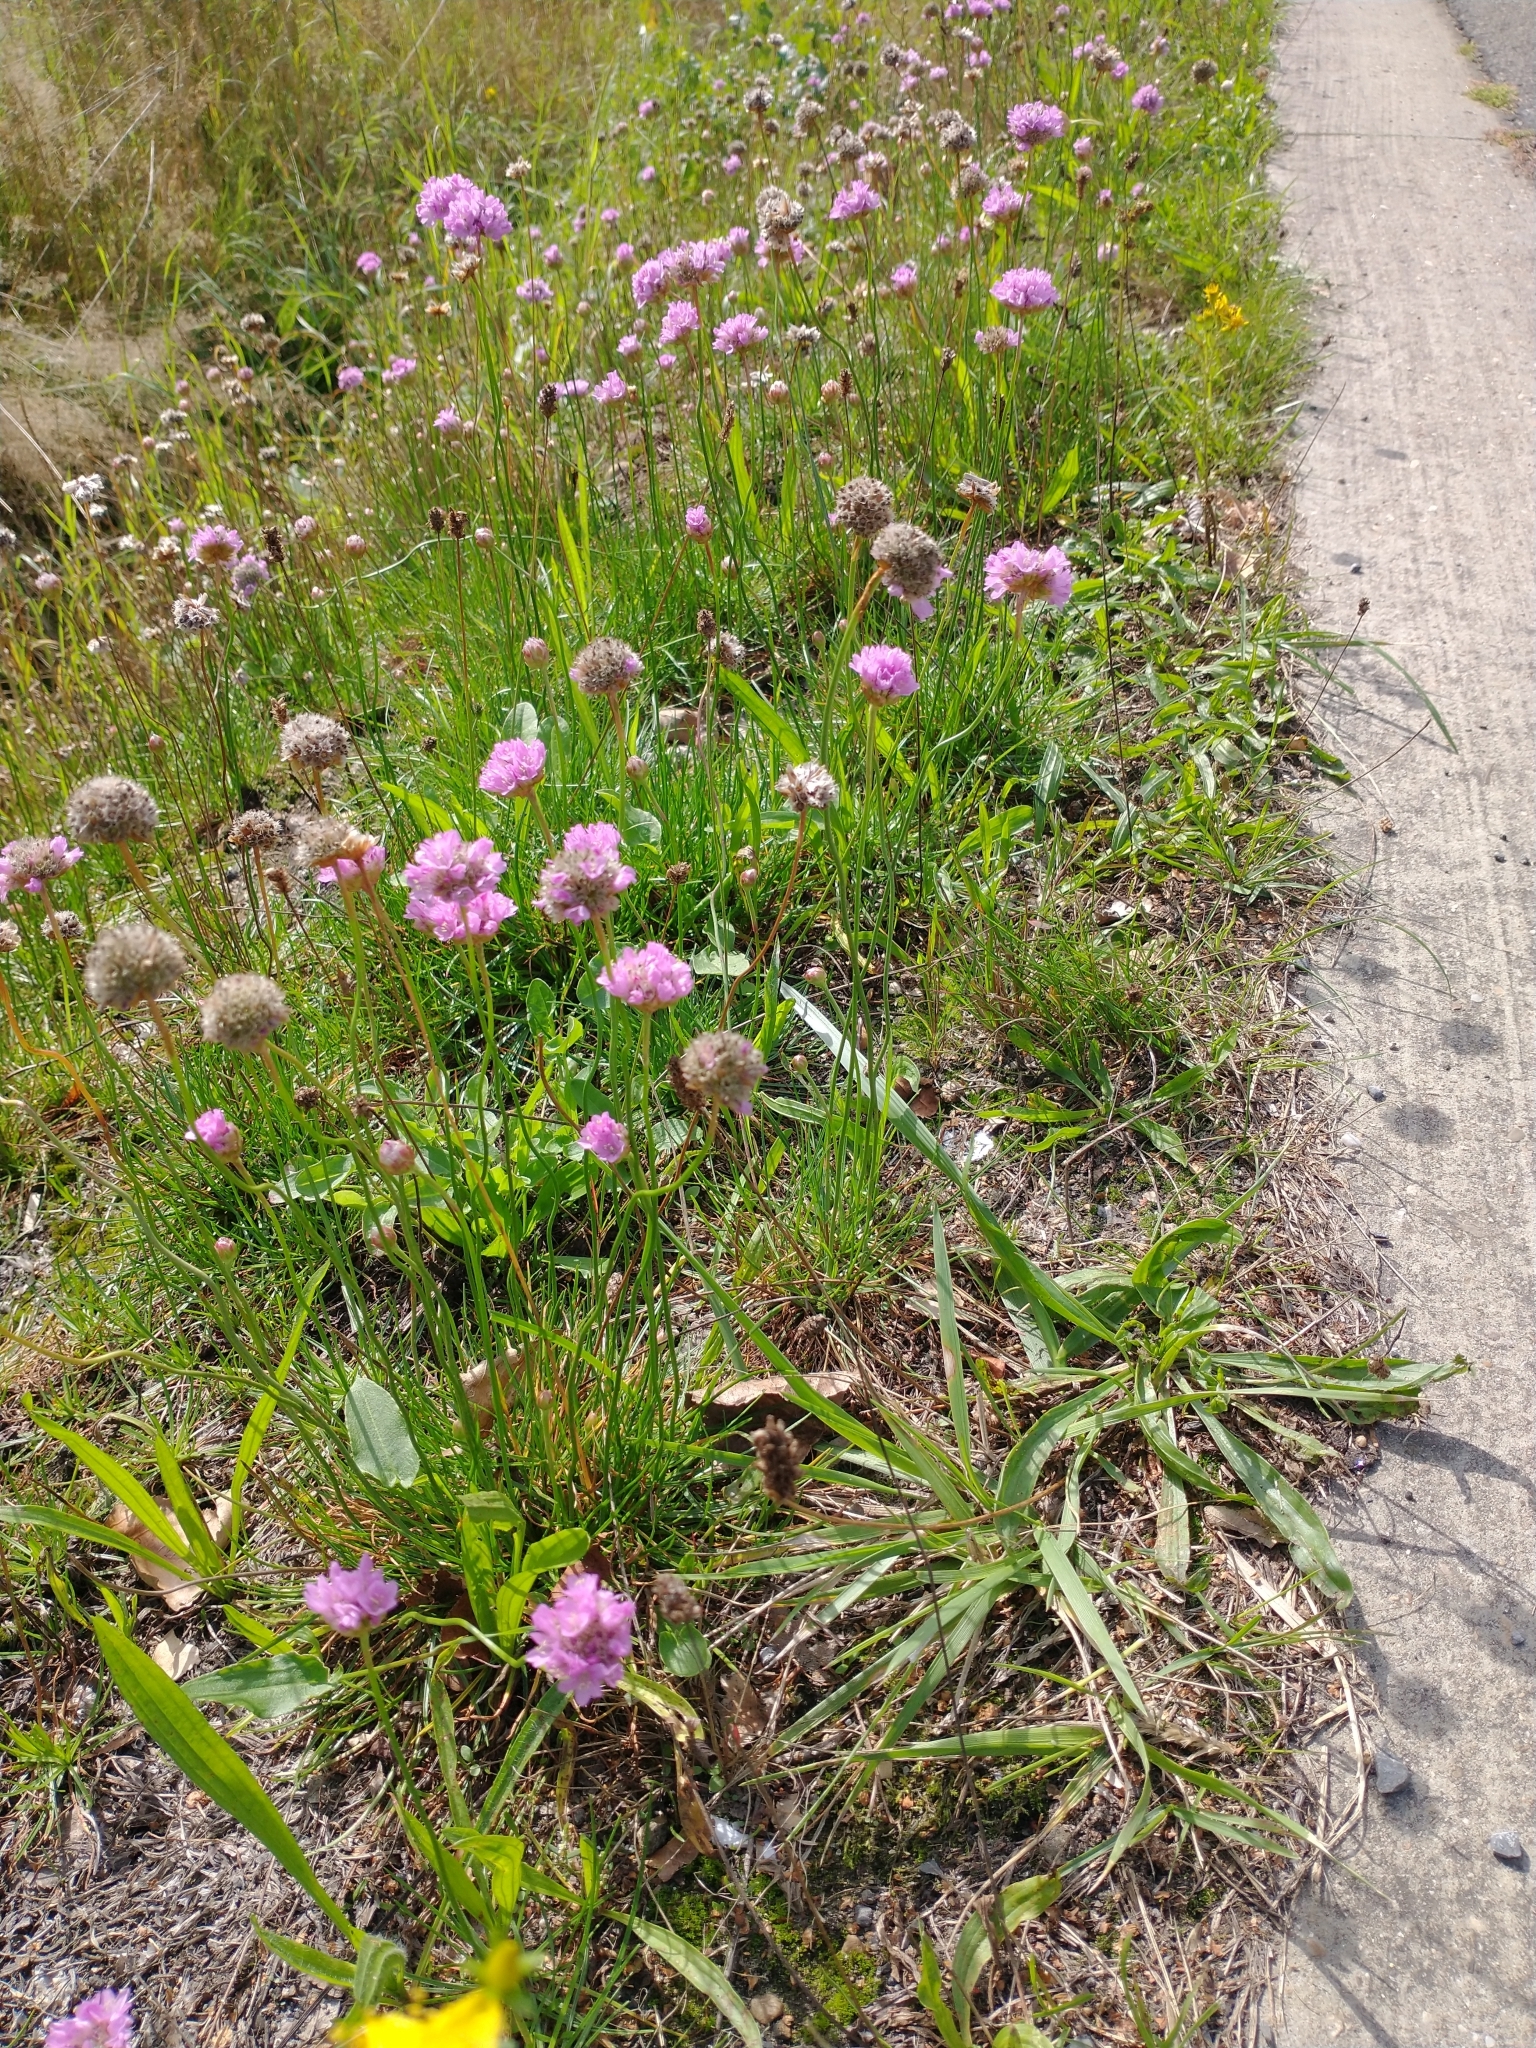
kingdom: Plantae
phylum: Tracheophyta
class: Magnoliopsida
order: Caryophyllales
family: Plumbaginaceae
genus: Armeria
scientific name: Armeria maritima
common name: Thrift
